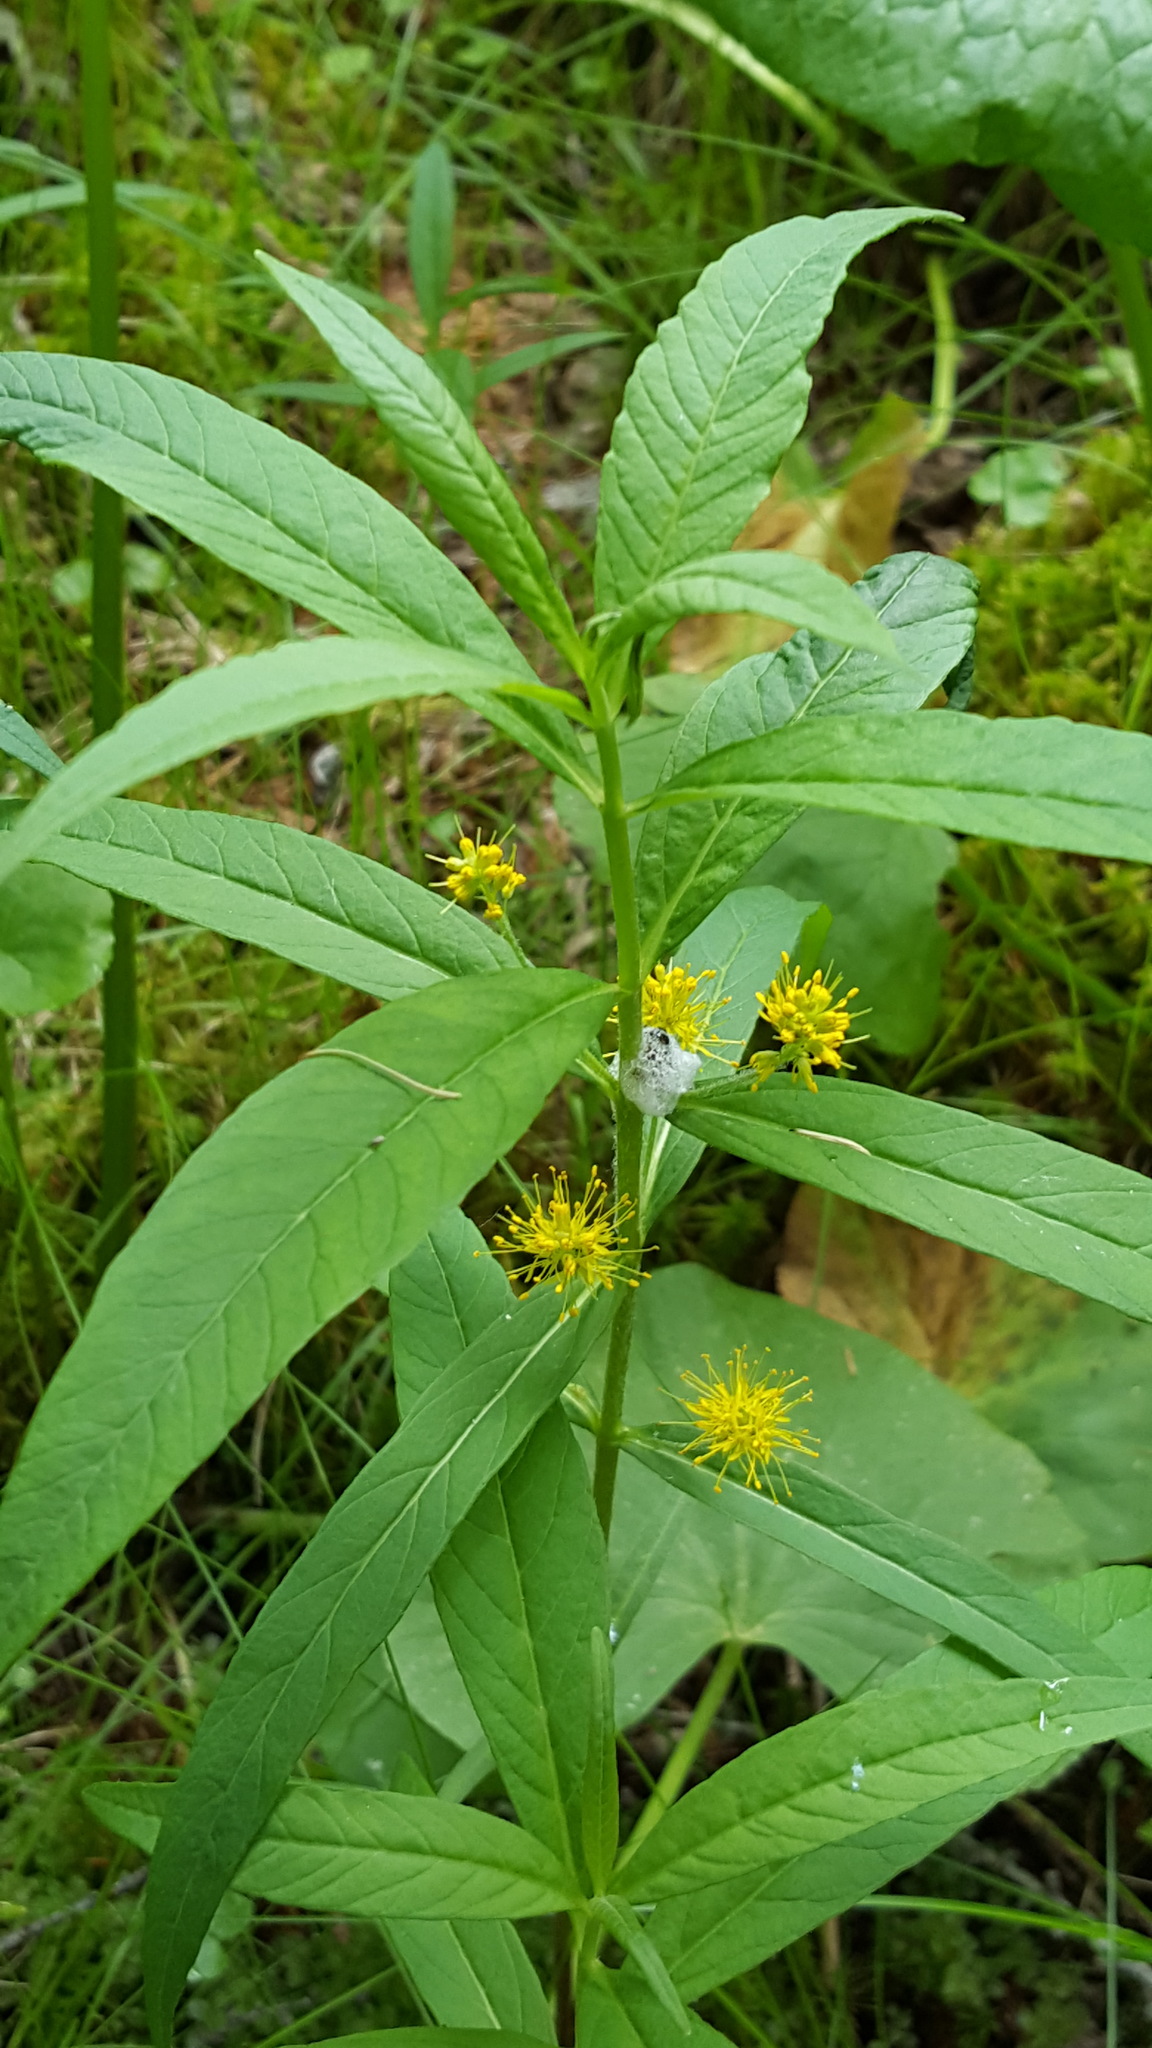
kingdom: Plantae
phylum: Tracheophyta
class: Magnoliopsida
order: Ericales
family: Primulaceae
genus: Lysimachia
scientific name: Lysimachia thyrsiflora
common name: Tufted loosestrife
